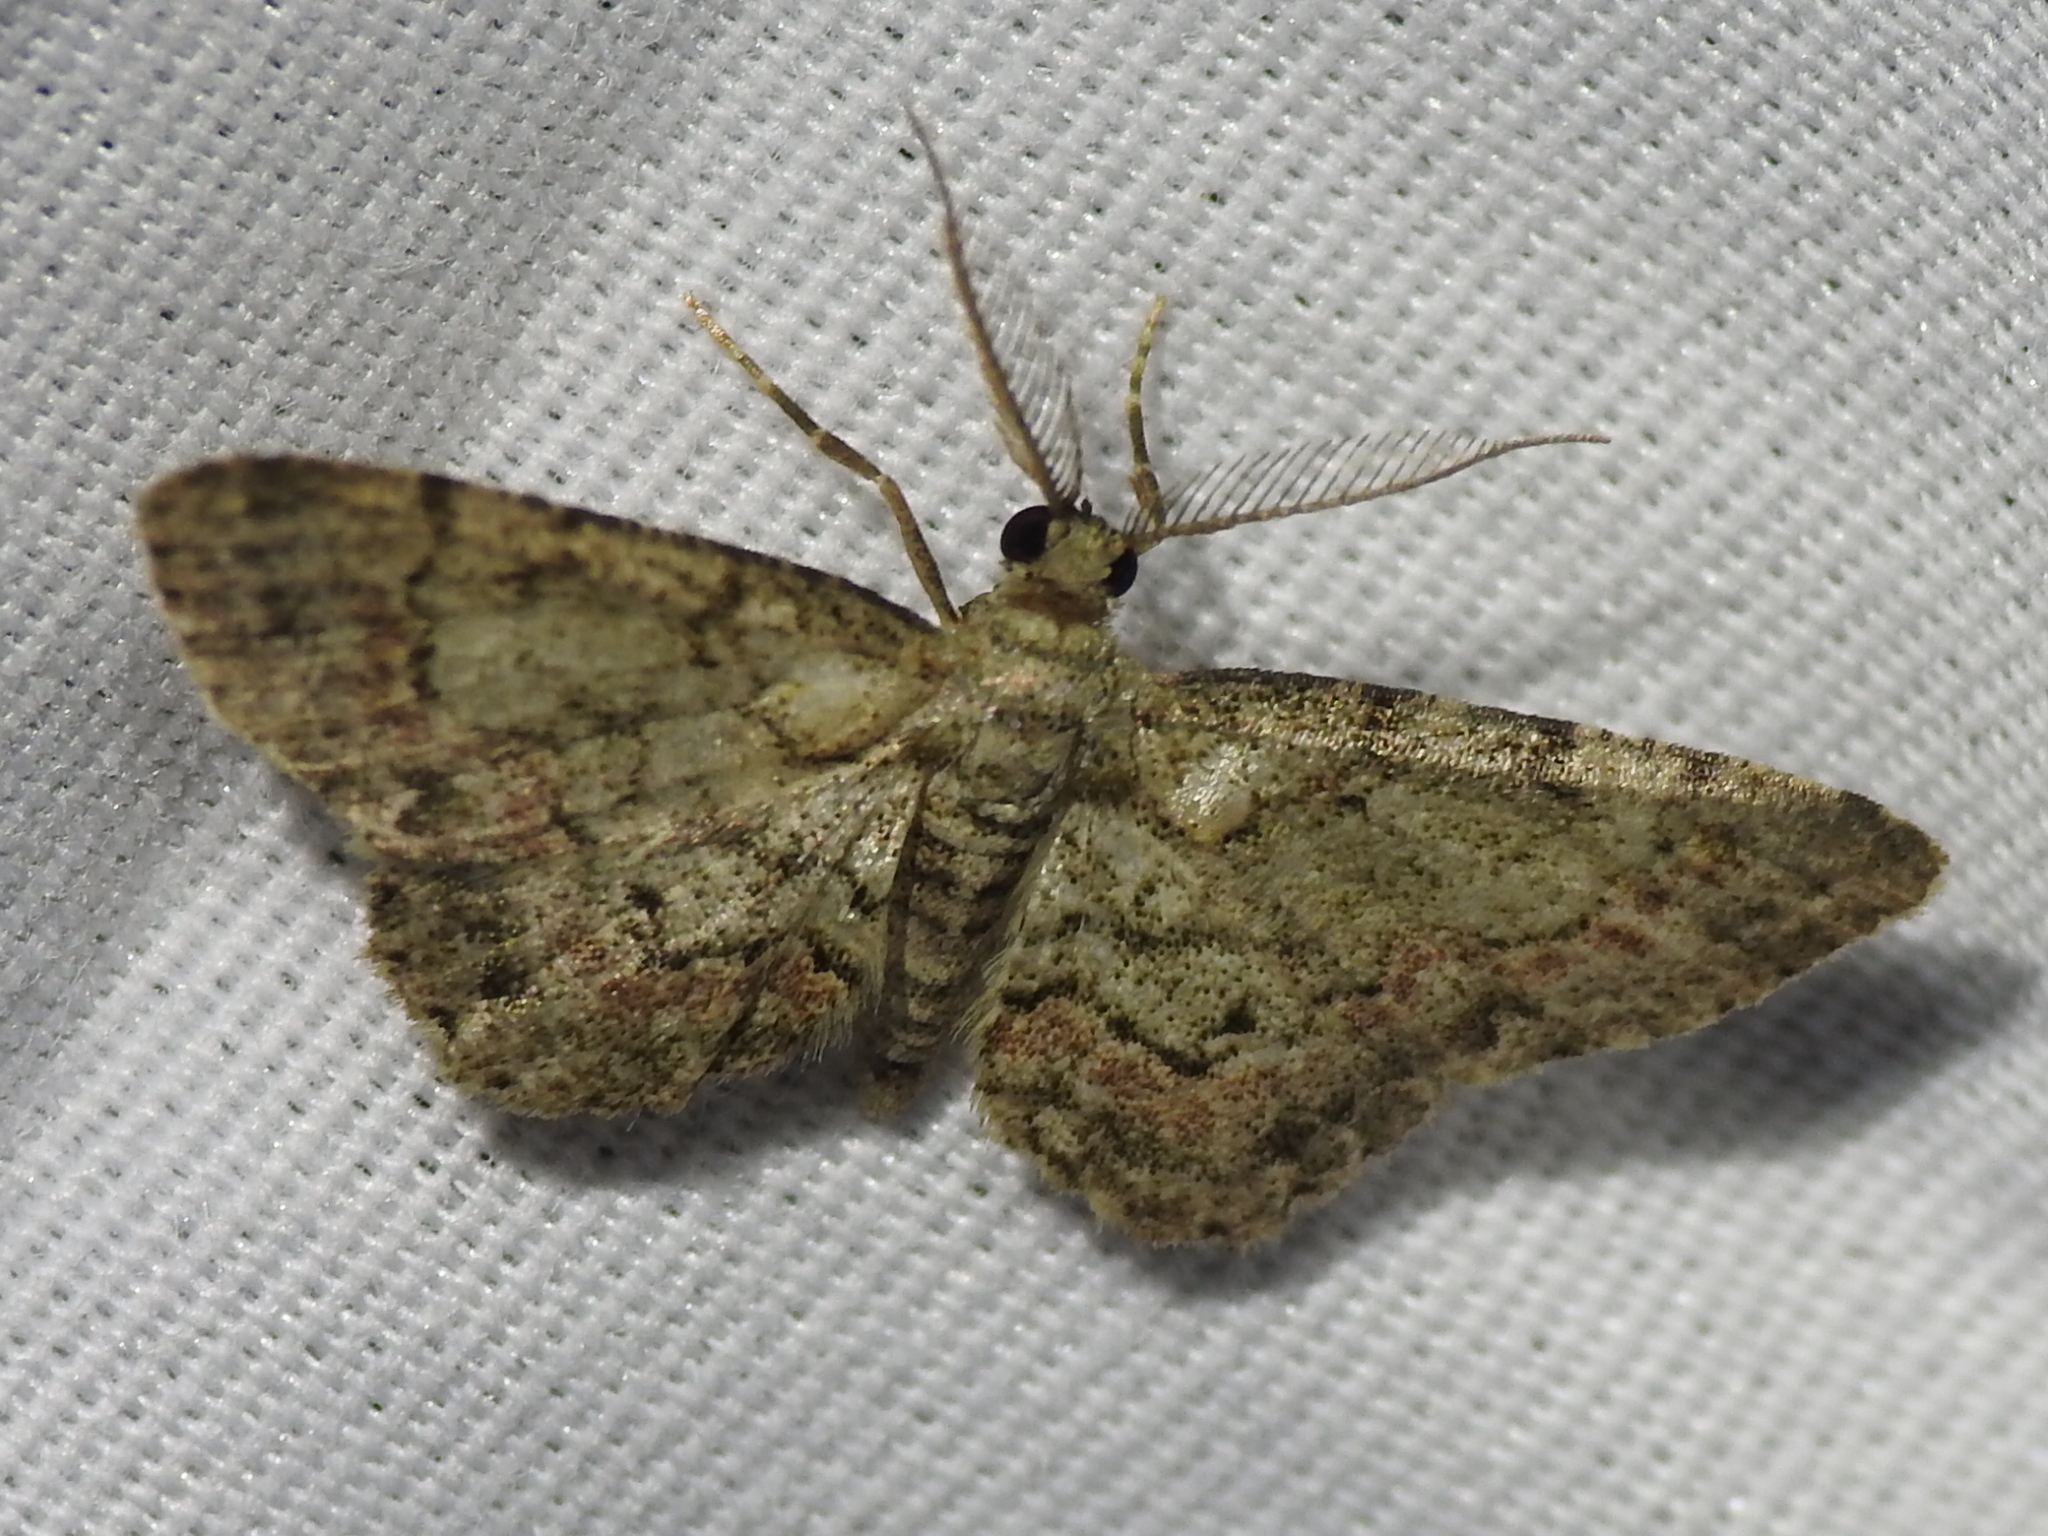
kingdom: Animalia
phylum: Arthropoda
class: Insecta
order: Lepidoptera
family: Geometridae
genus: Glenoides
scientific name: Glenoides texanaria
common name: Texas gray
